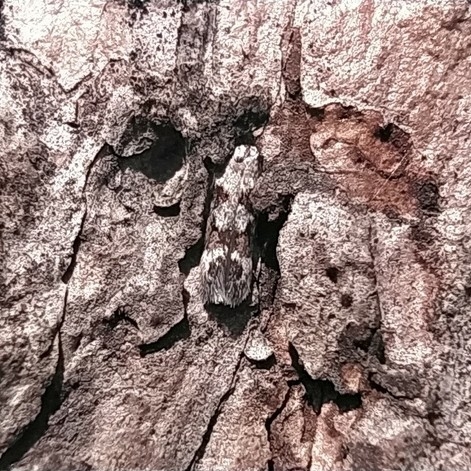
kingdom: Animalia
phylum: Arthropoda
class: Insecta
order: Lepidoptera
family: Gelechiidae
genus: Caryocolum
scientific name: Caryocolum junctella
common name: Confluent groundling
